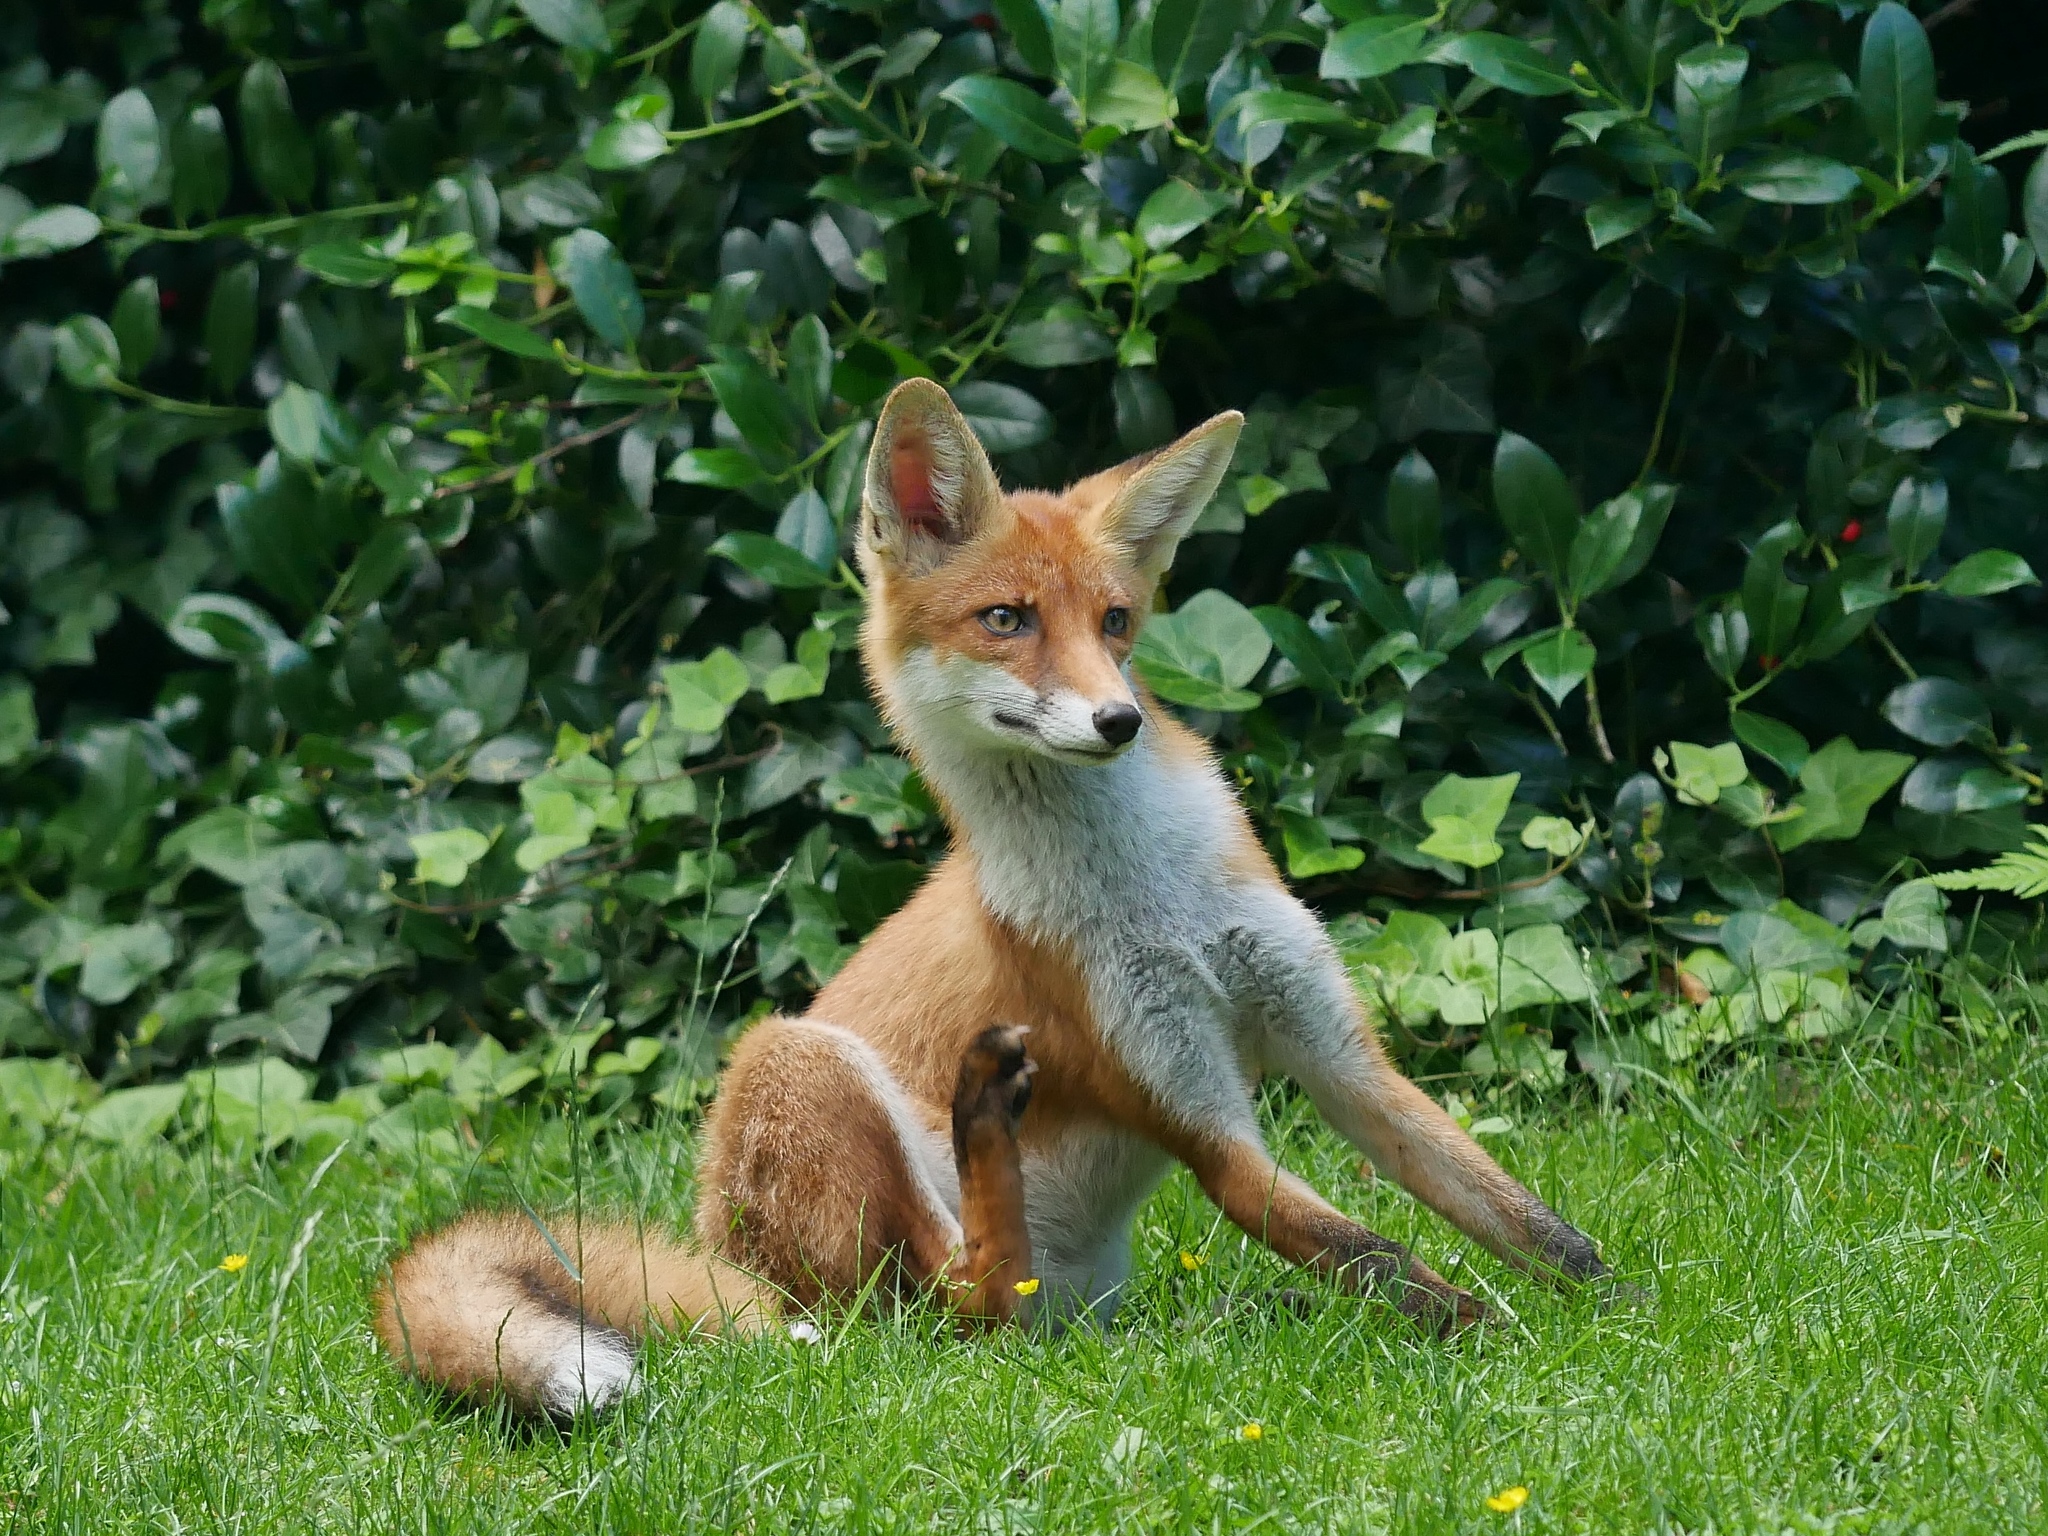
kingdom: Animalia
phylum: Chordata
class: Mammalia
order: Carnivora
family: Canidae
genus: Vulpes
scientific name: Vulpes vulpes
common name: Red fox
